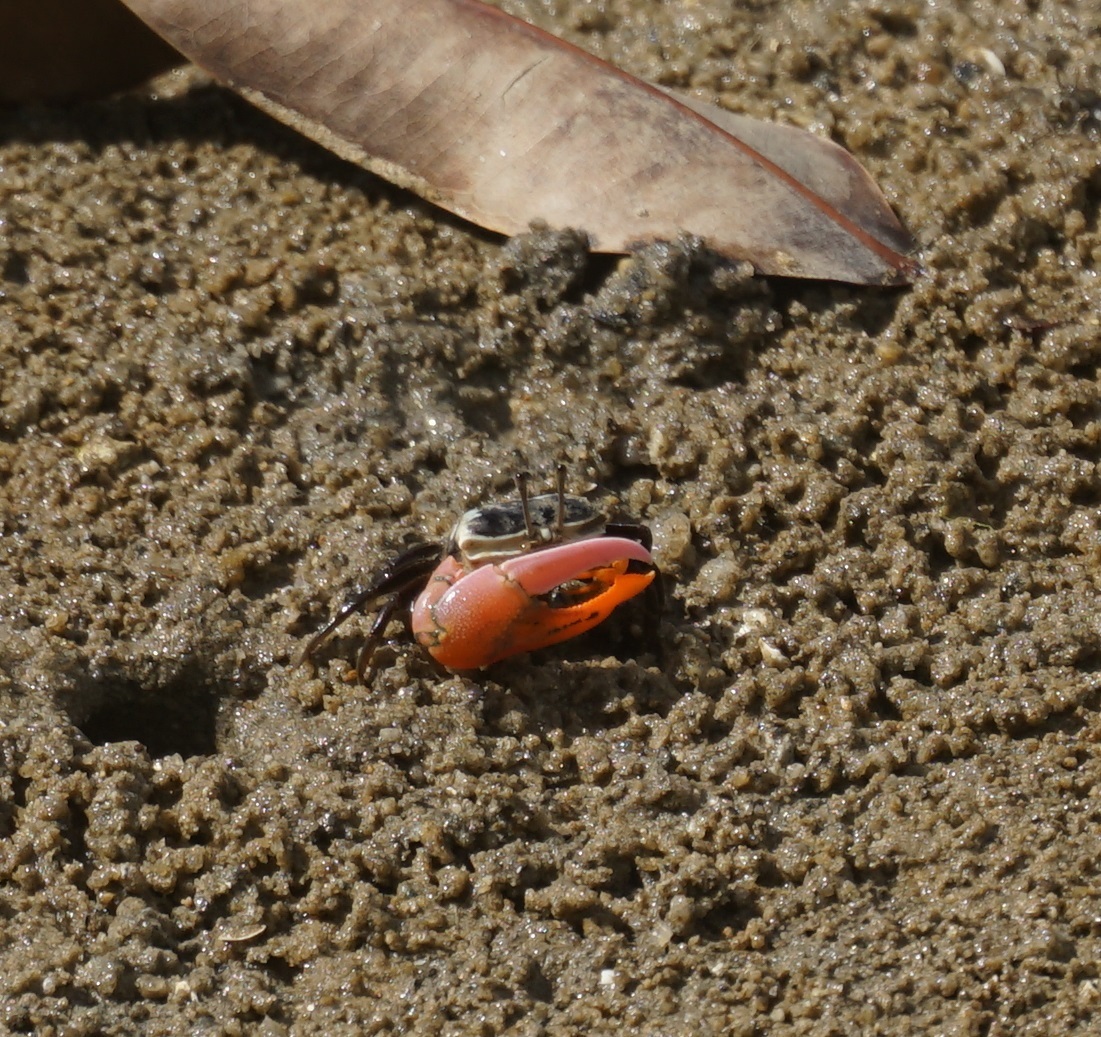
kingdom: Animalia
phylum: Arthropoda
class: Malacostraca
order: Decapoda
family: Ocypodidae
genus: Gelasimus
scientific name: Gelasimus vomeris
